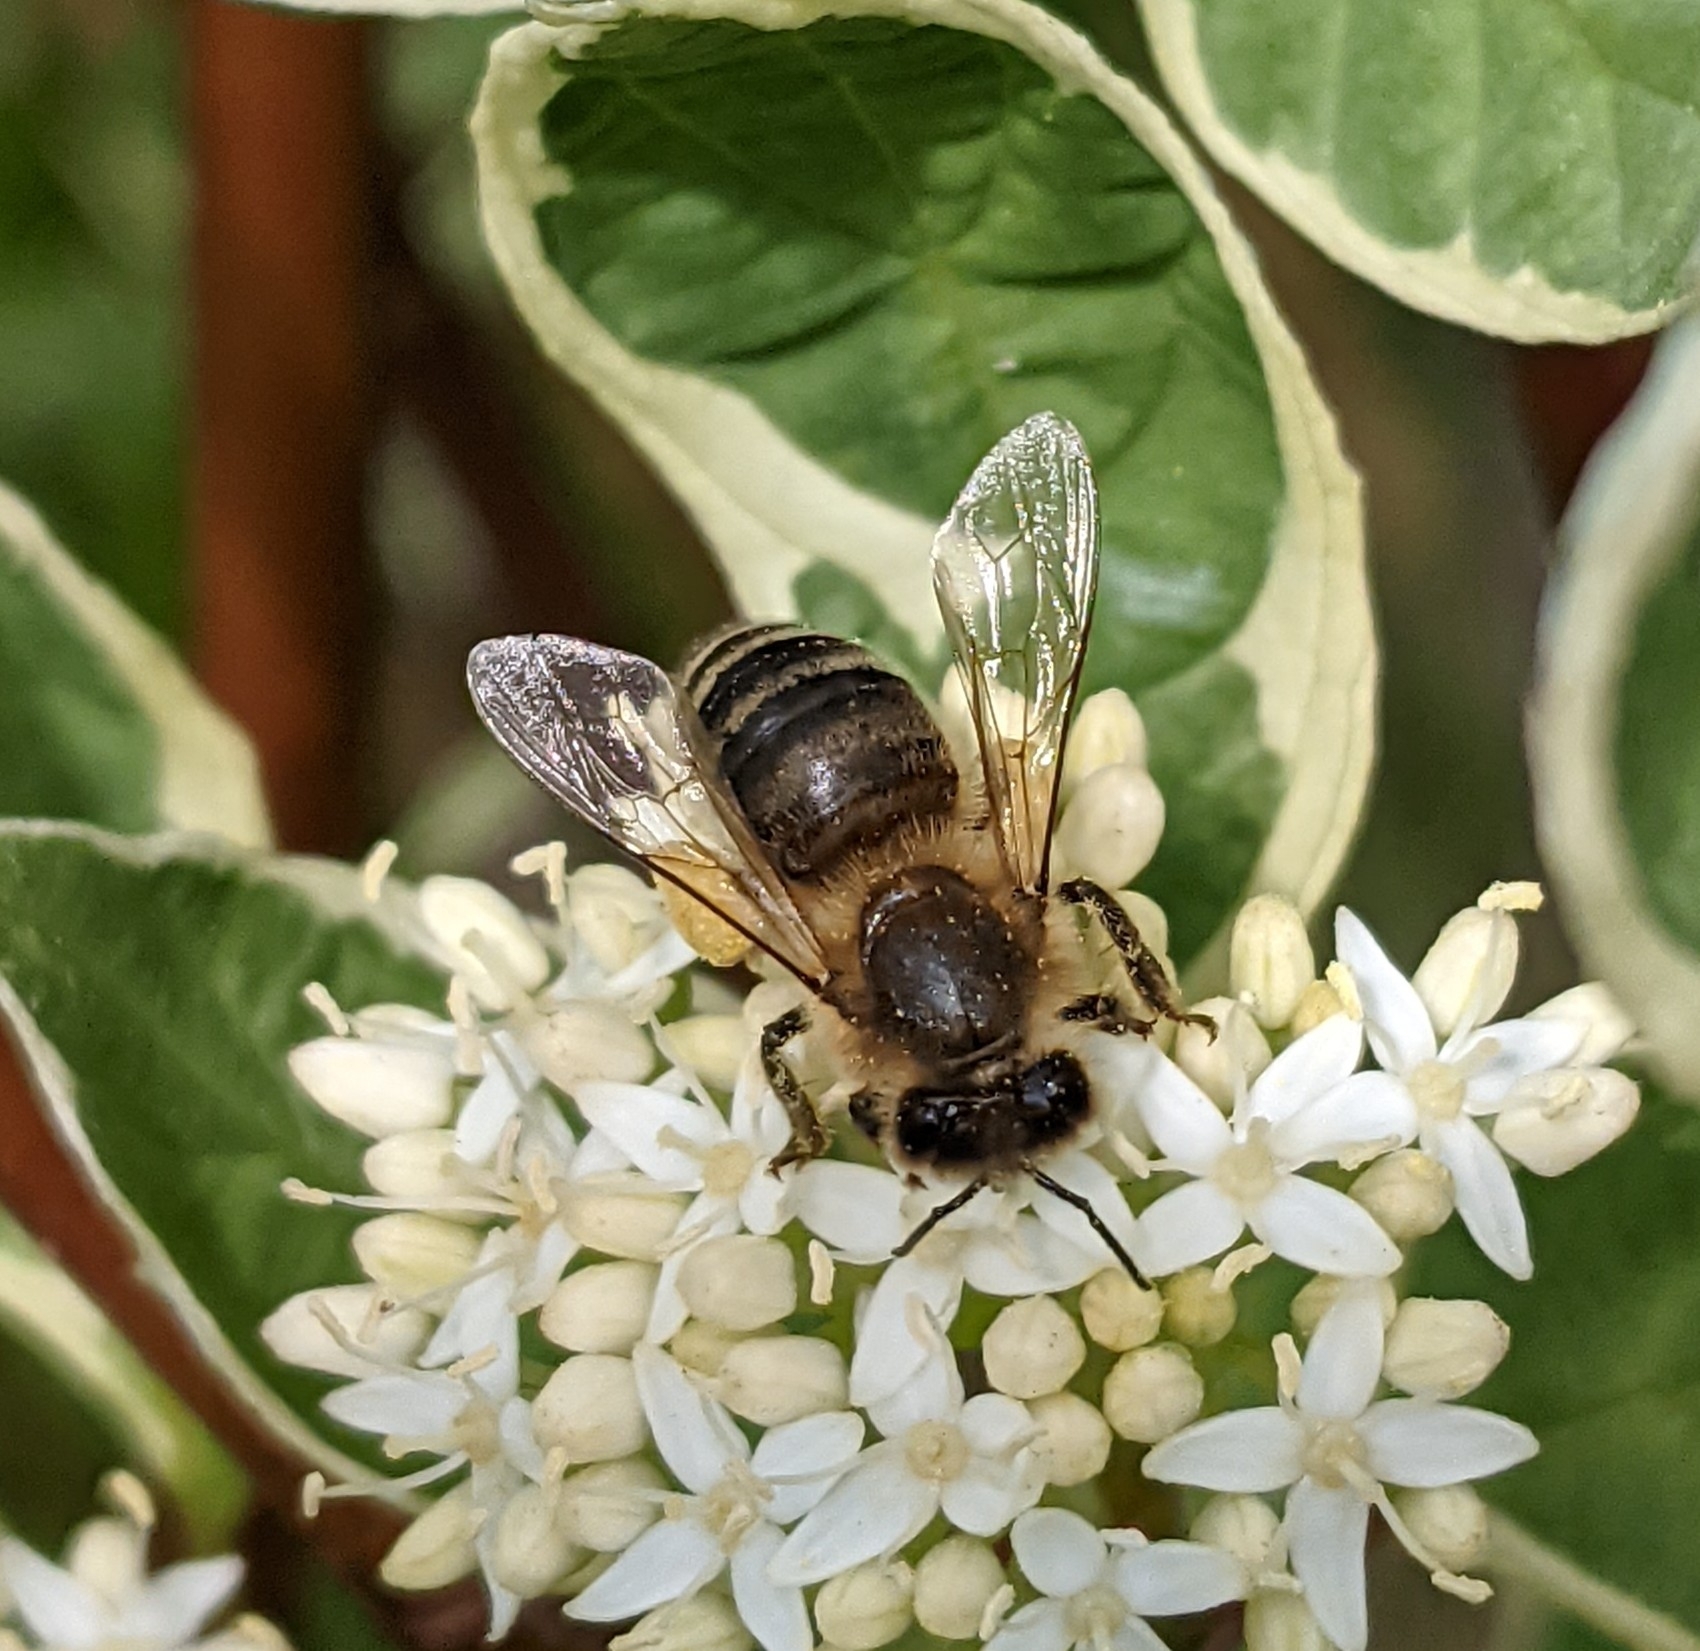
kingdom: Animalia
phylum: Arthropoda
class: Insecta
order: Hymenoptera
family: Apidae
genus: Apis
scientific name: Apis mellifera
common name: Honey bee
